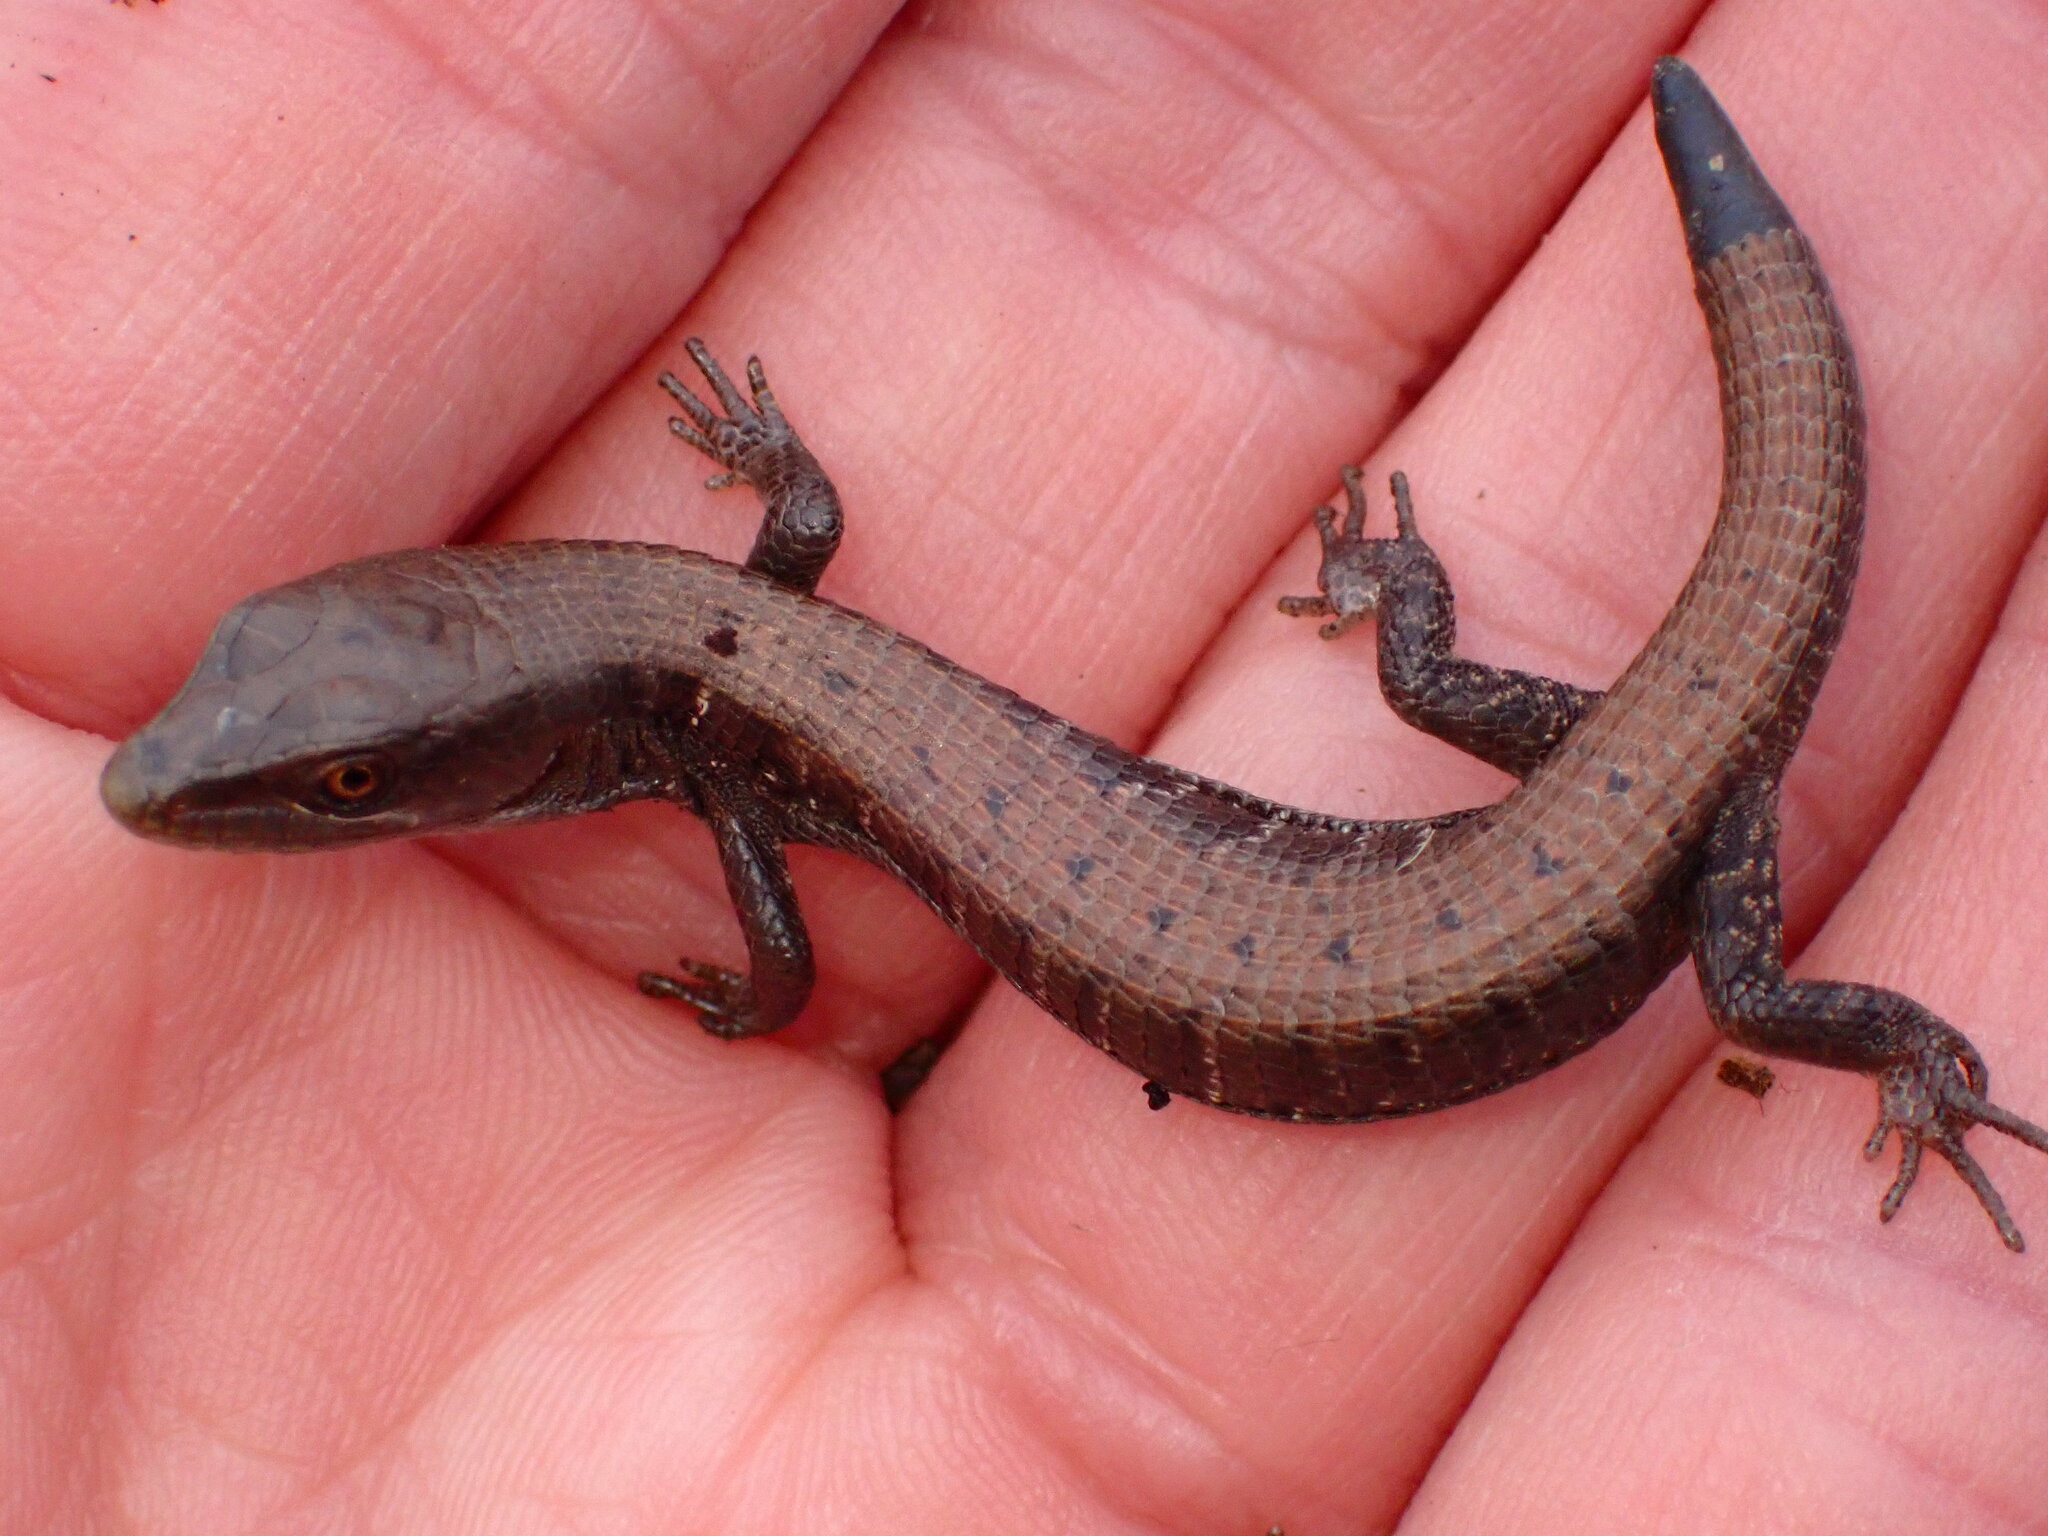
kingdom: Animalia
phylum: Chordata
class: Squamata
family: Anguidae
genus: Elgaria
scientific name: Elgaria multicarinata
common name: Southern alligator lizard
